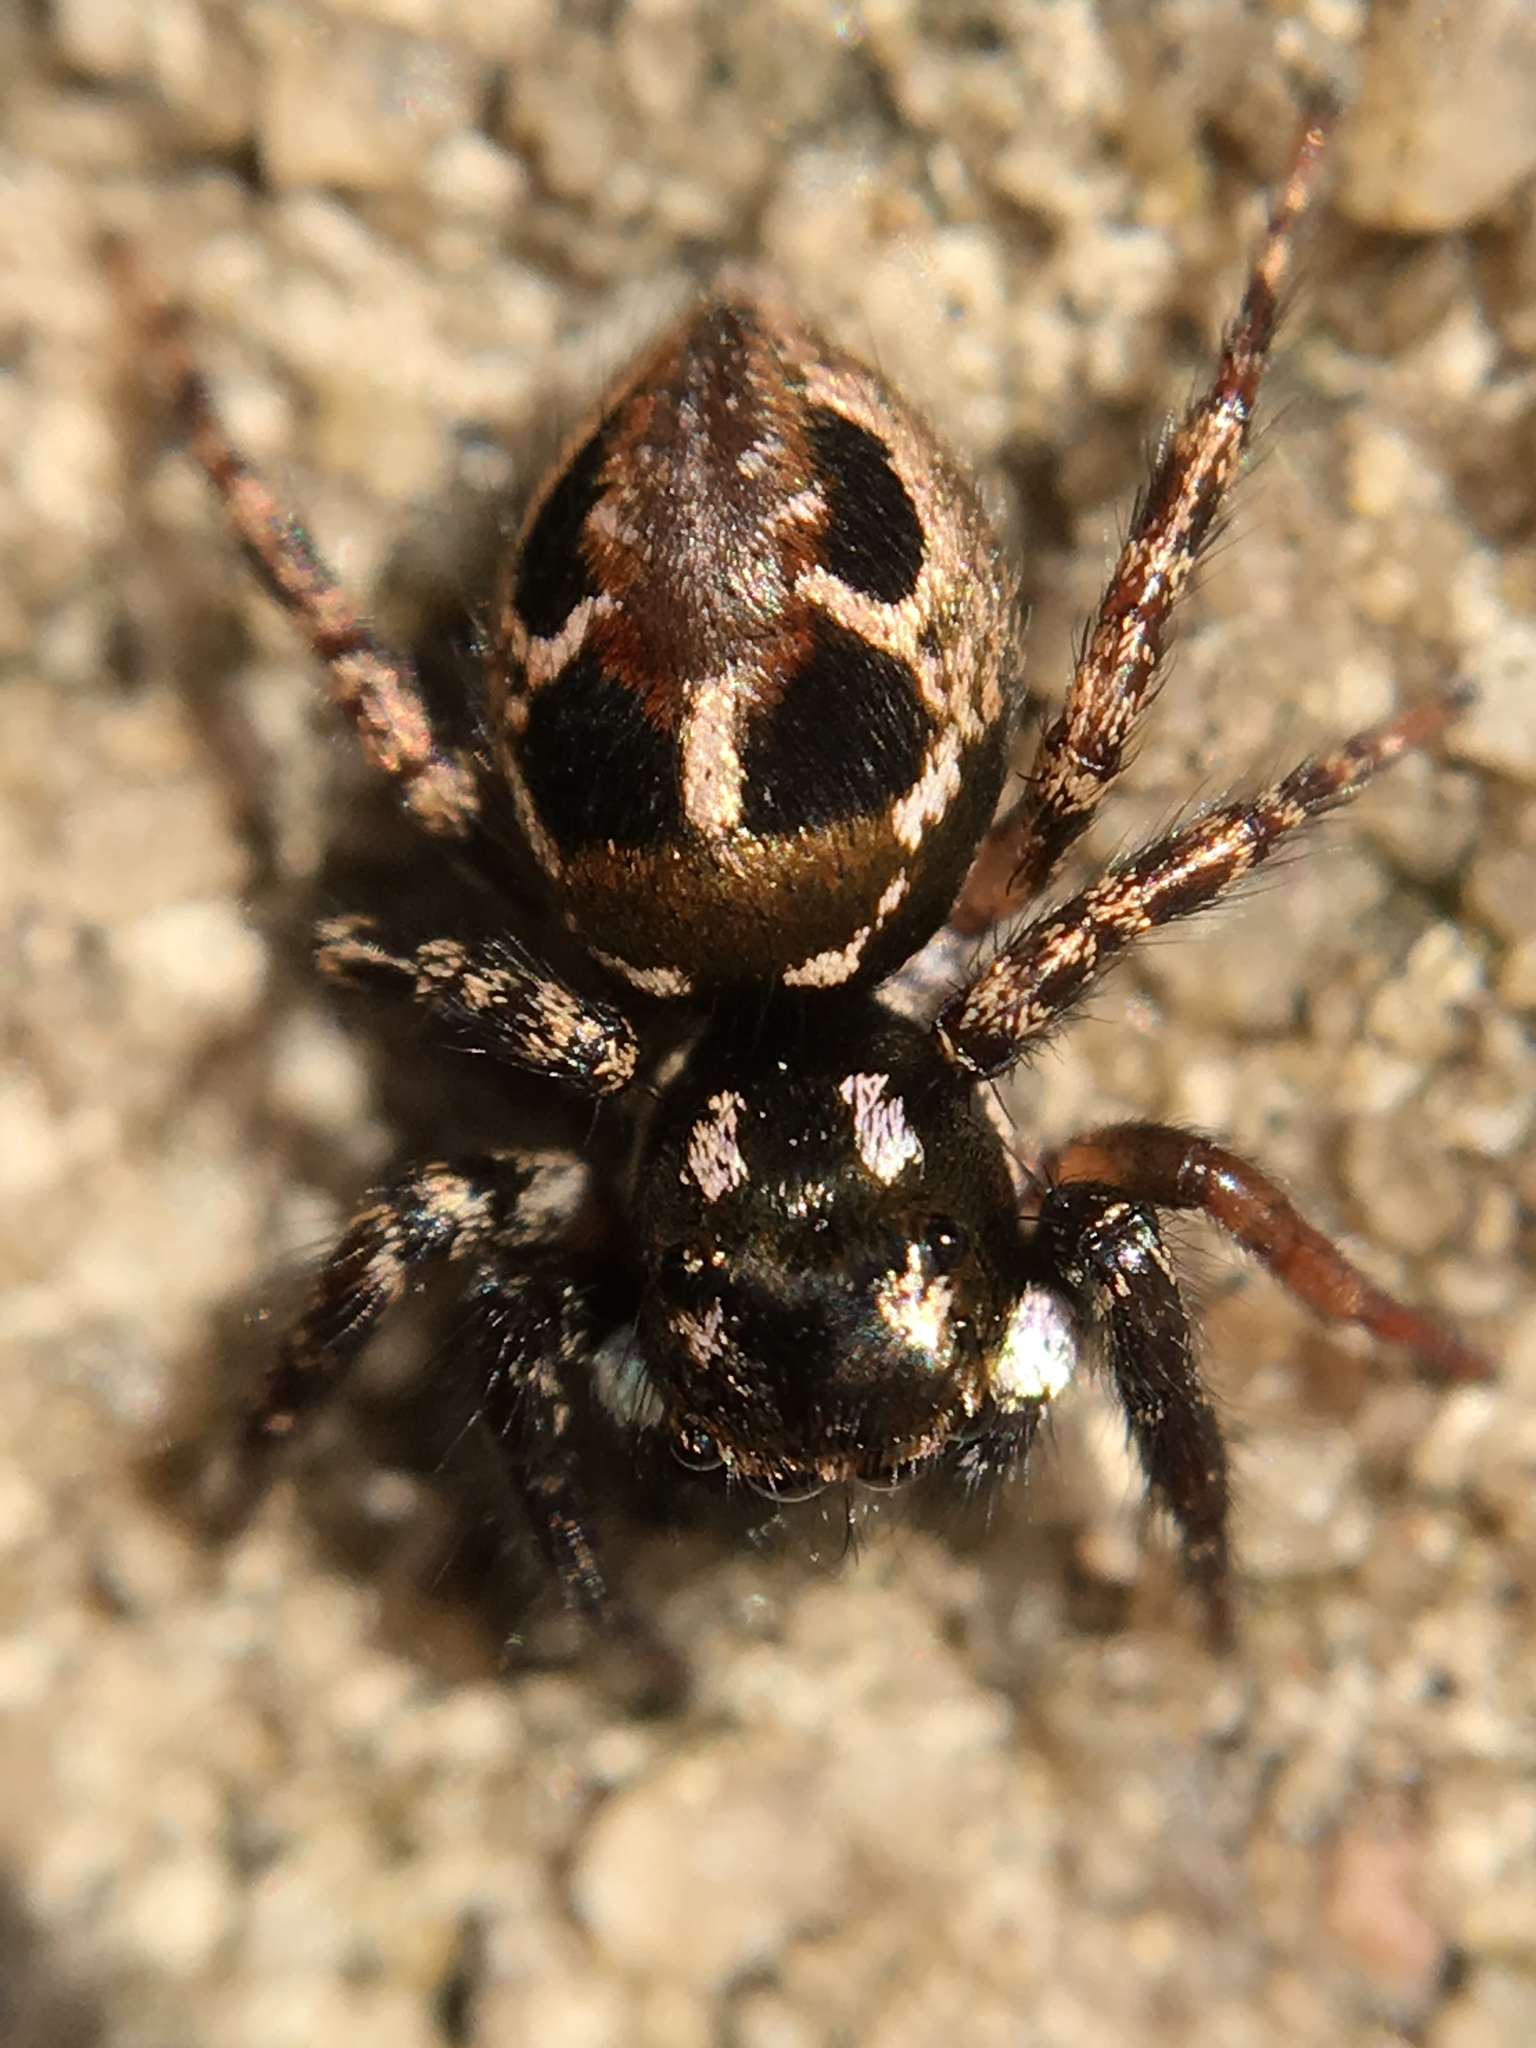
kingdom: Animalia
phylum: Arthropoda
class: Arachnida
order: Araneae
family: Salticidae
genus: Anasaitis
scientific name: Anasaitis canosa
